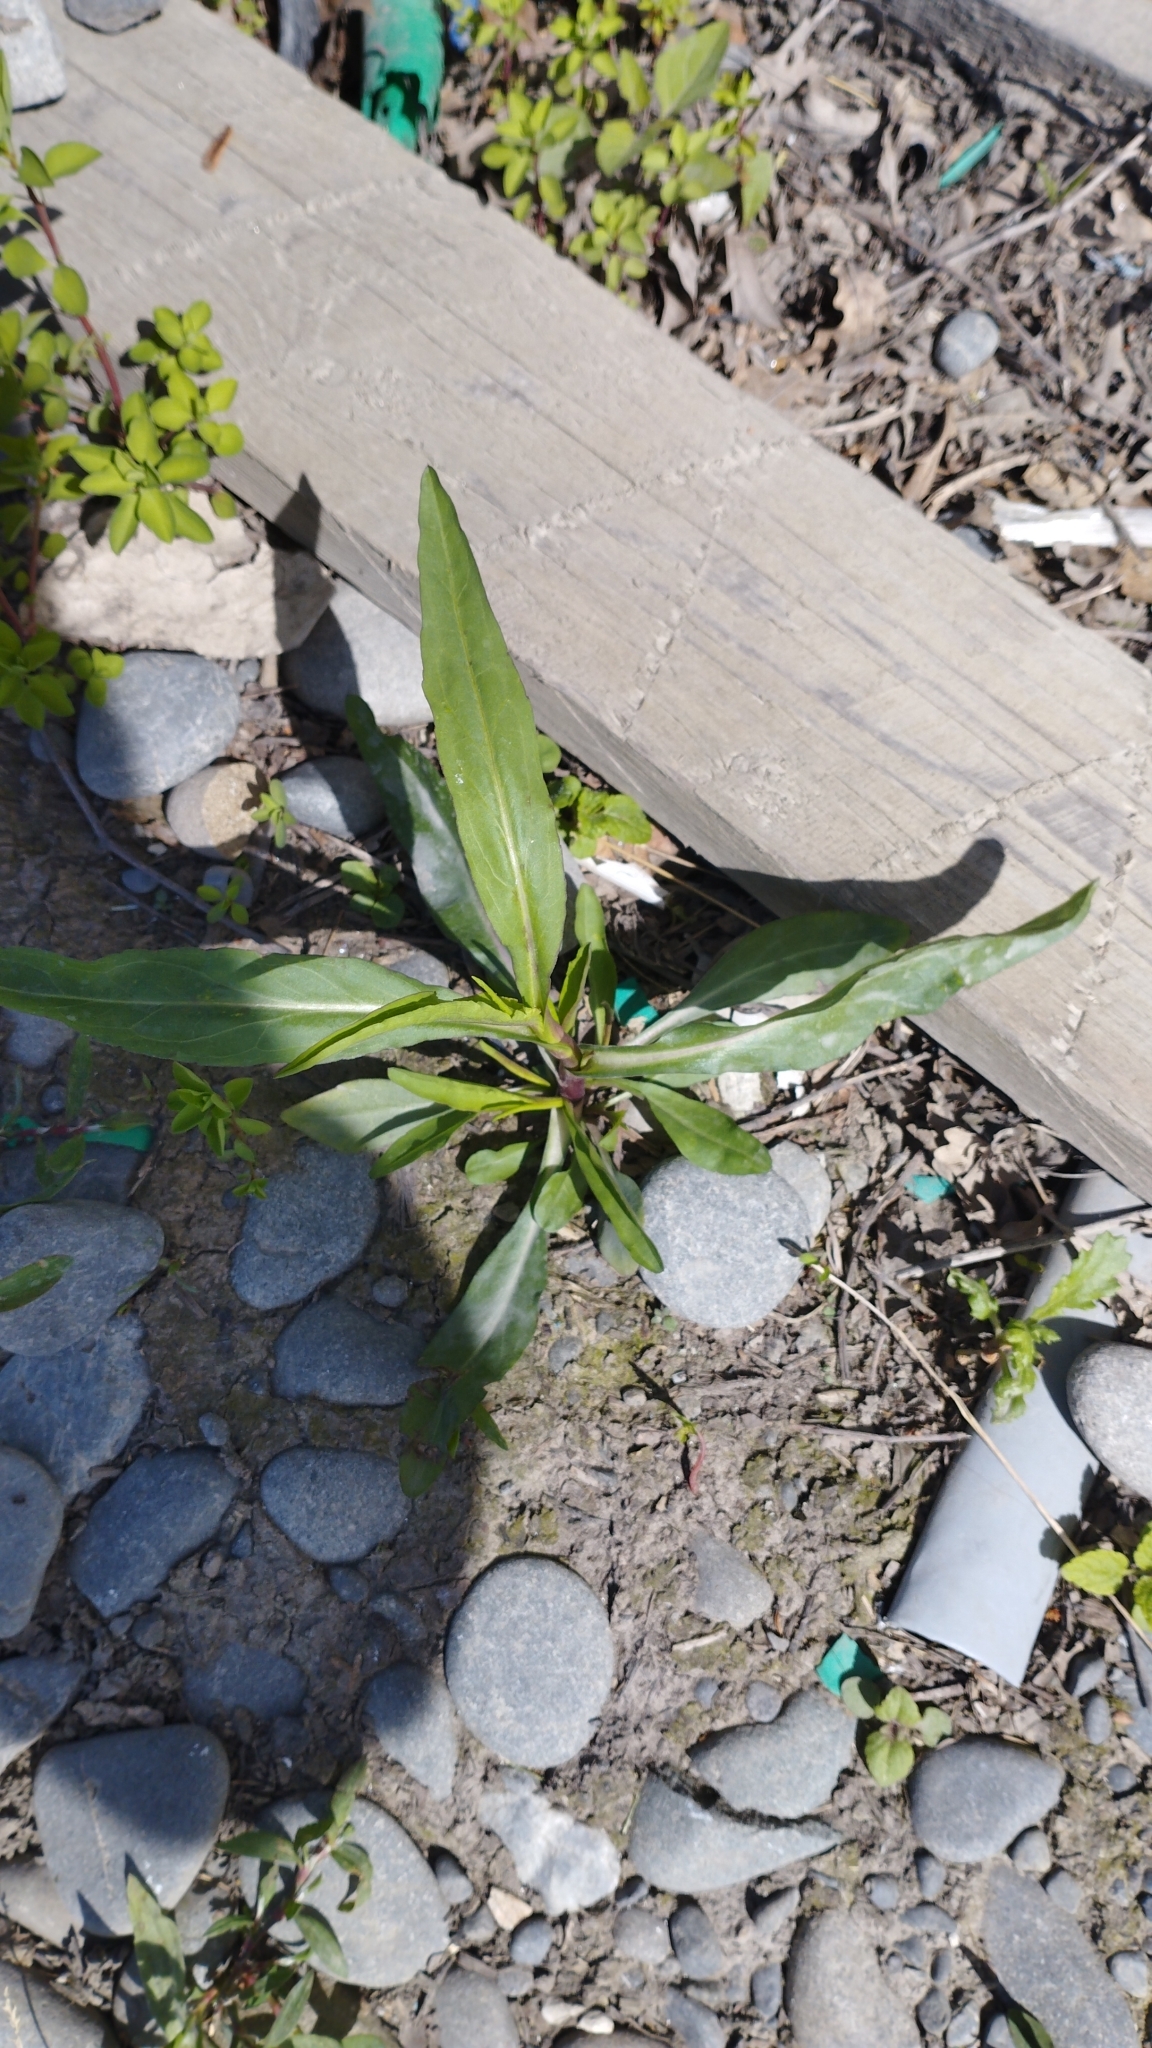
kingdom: Plantae
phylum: Tracheophyta
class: Magnoliopsida
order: Asterales
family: Asteraceae
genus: Symphyotrichum
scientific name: Symphyotrichum subulatum
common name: Annual saltmarsh aster
